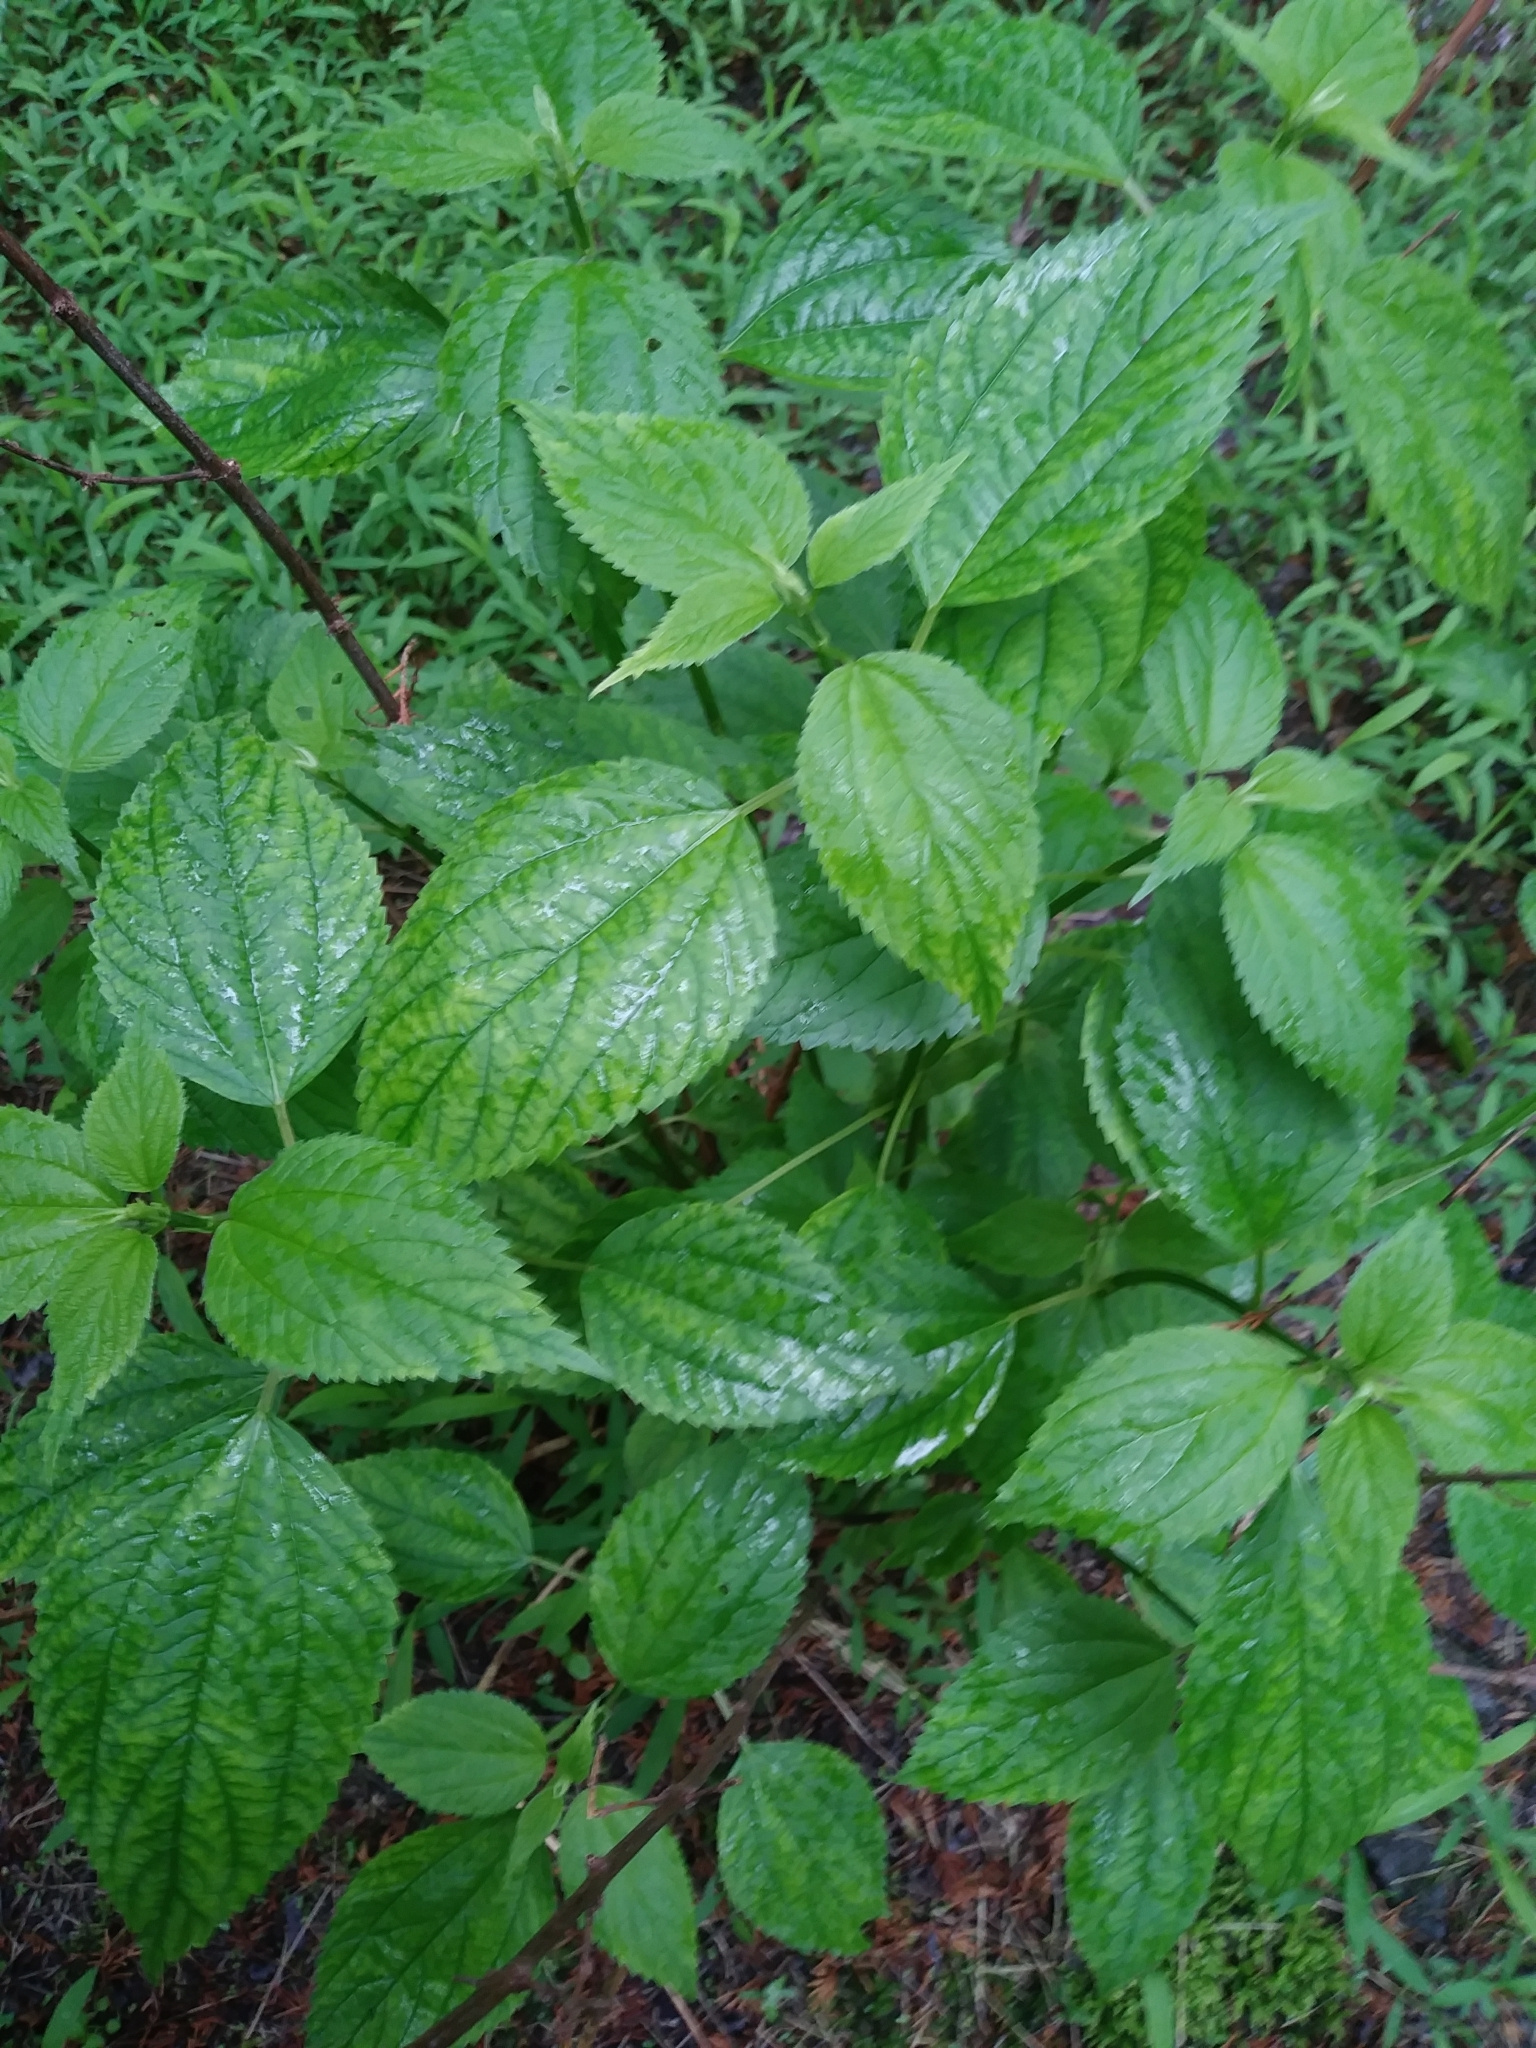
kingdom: Plantae
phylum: Tracheophyta
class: Magnoliopsida
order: Rosales
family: Urticaceae
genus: Boehmeria
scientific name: Boehmeria cylindrica
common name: Bog-hemp
